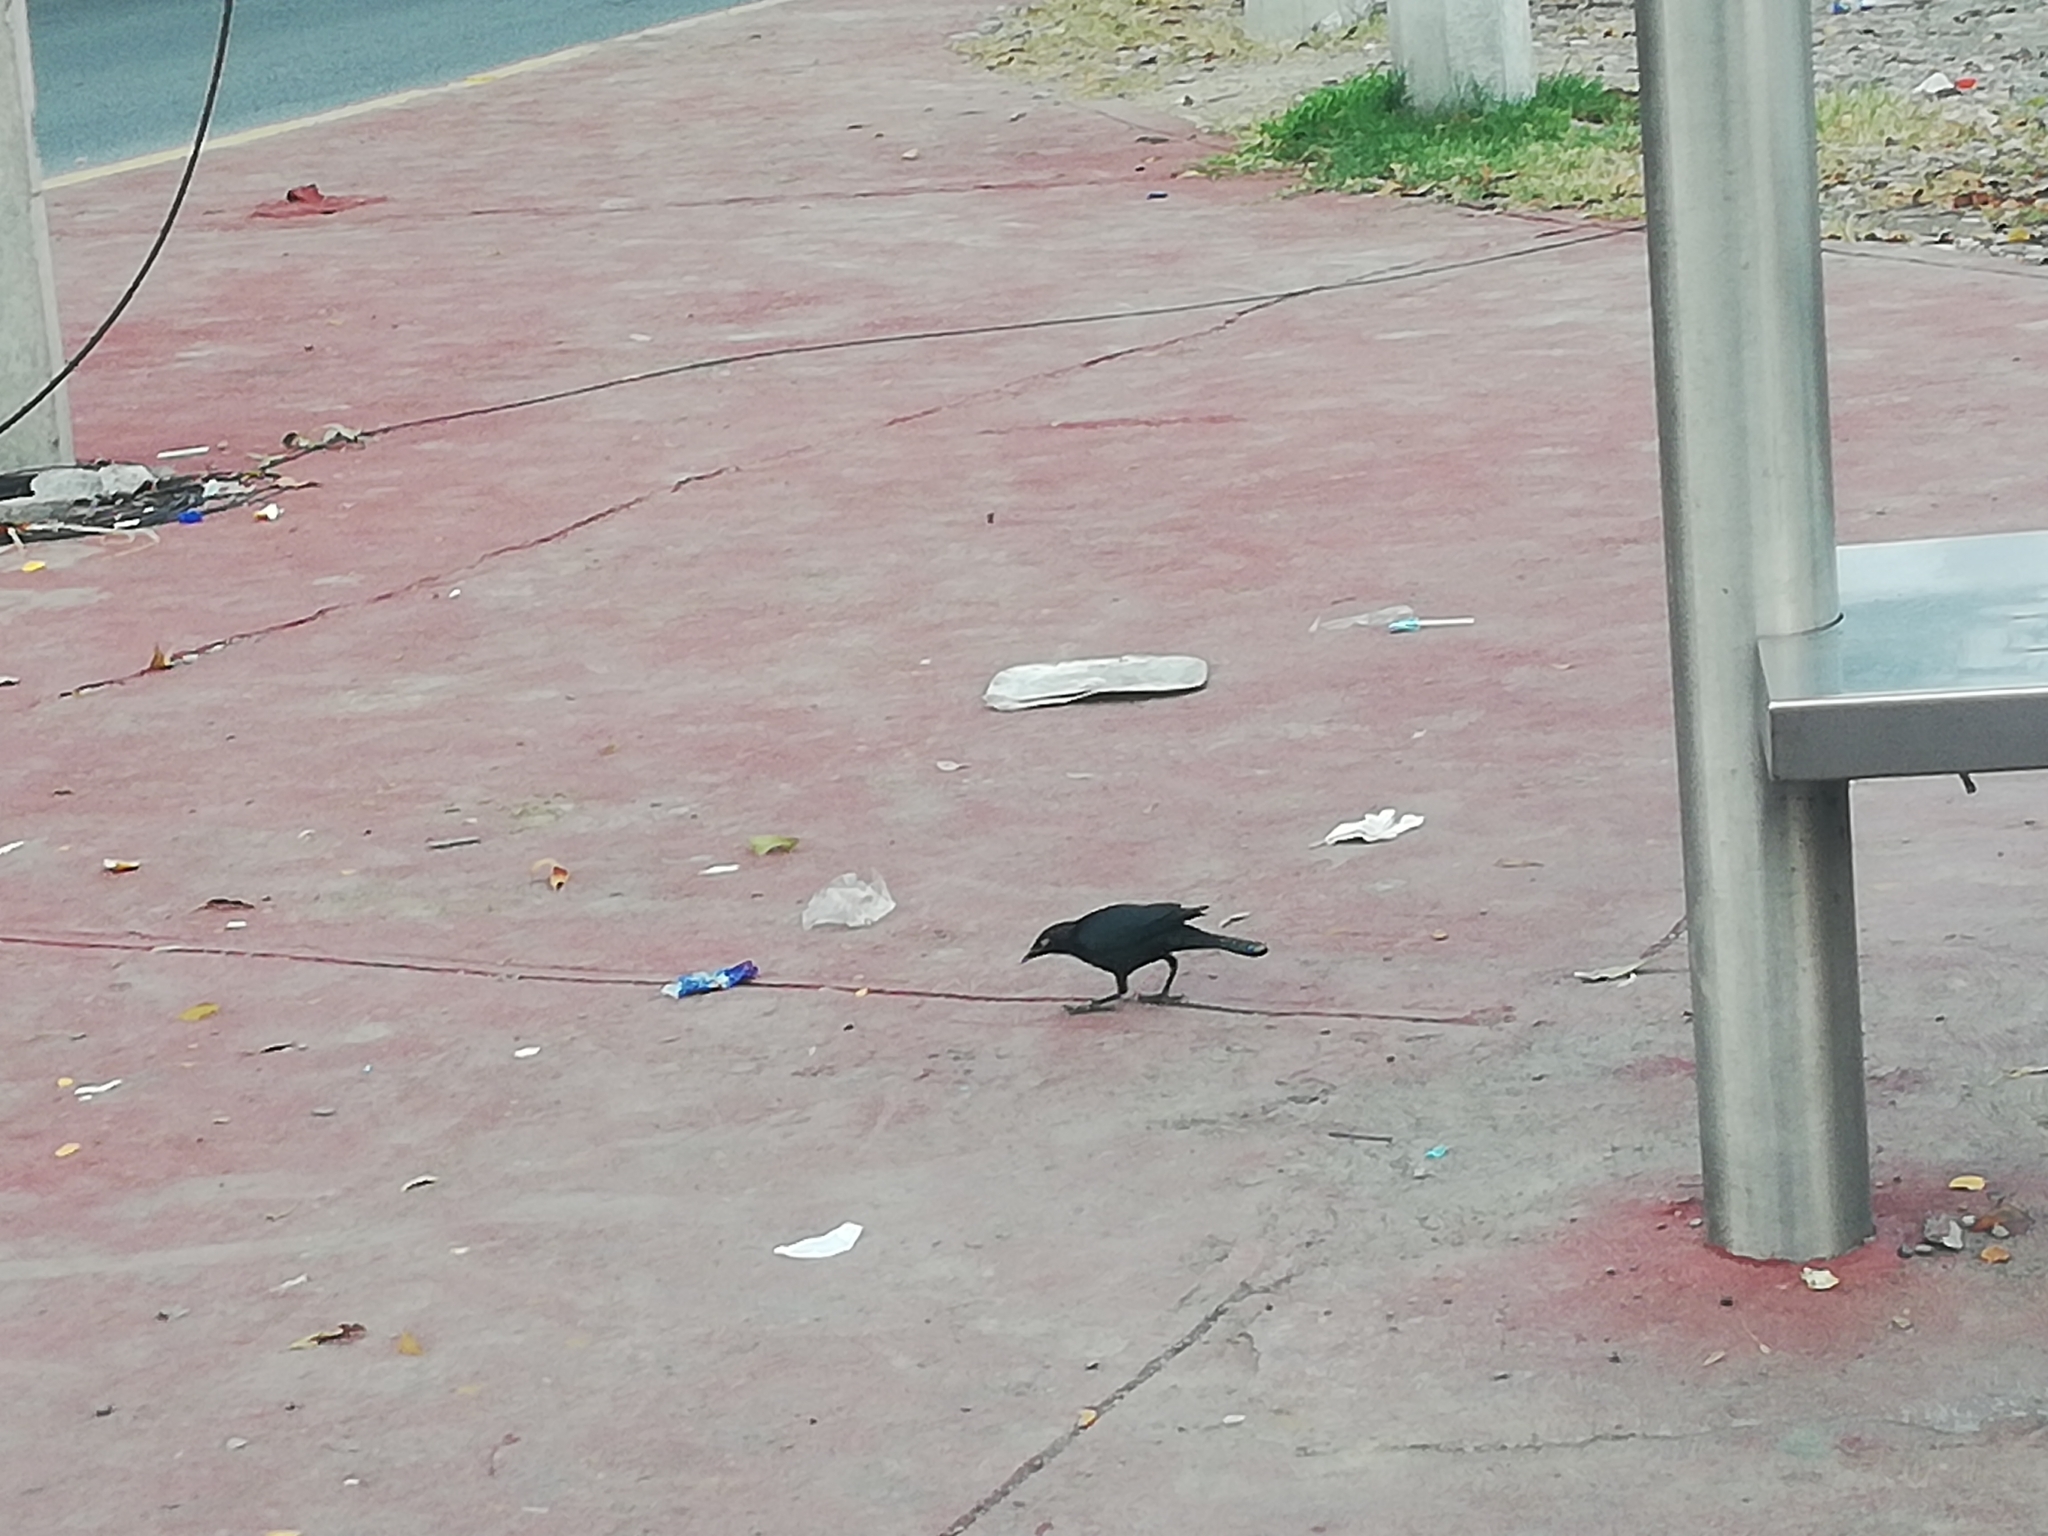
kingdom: Animalia
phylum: Chordata
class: Aves
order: Passeriformes
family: Icteridae
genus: Euphagus
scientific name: Euphagus cyanocephalus
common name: Brewer's blackbird
